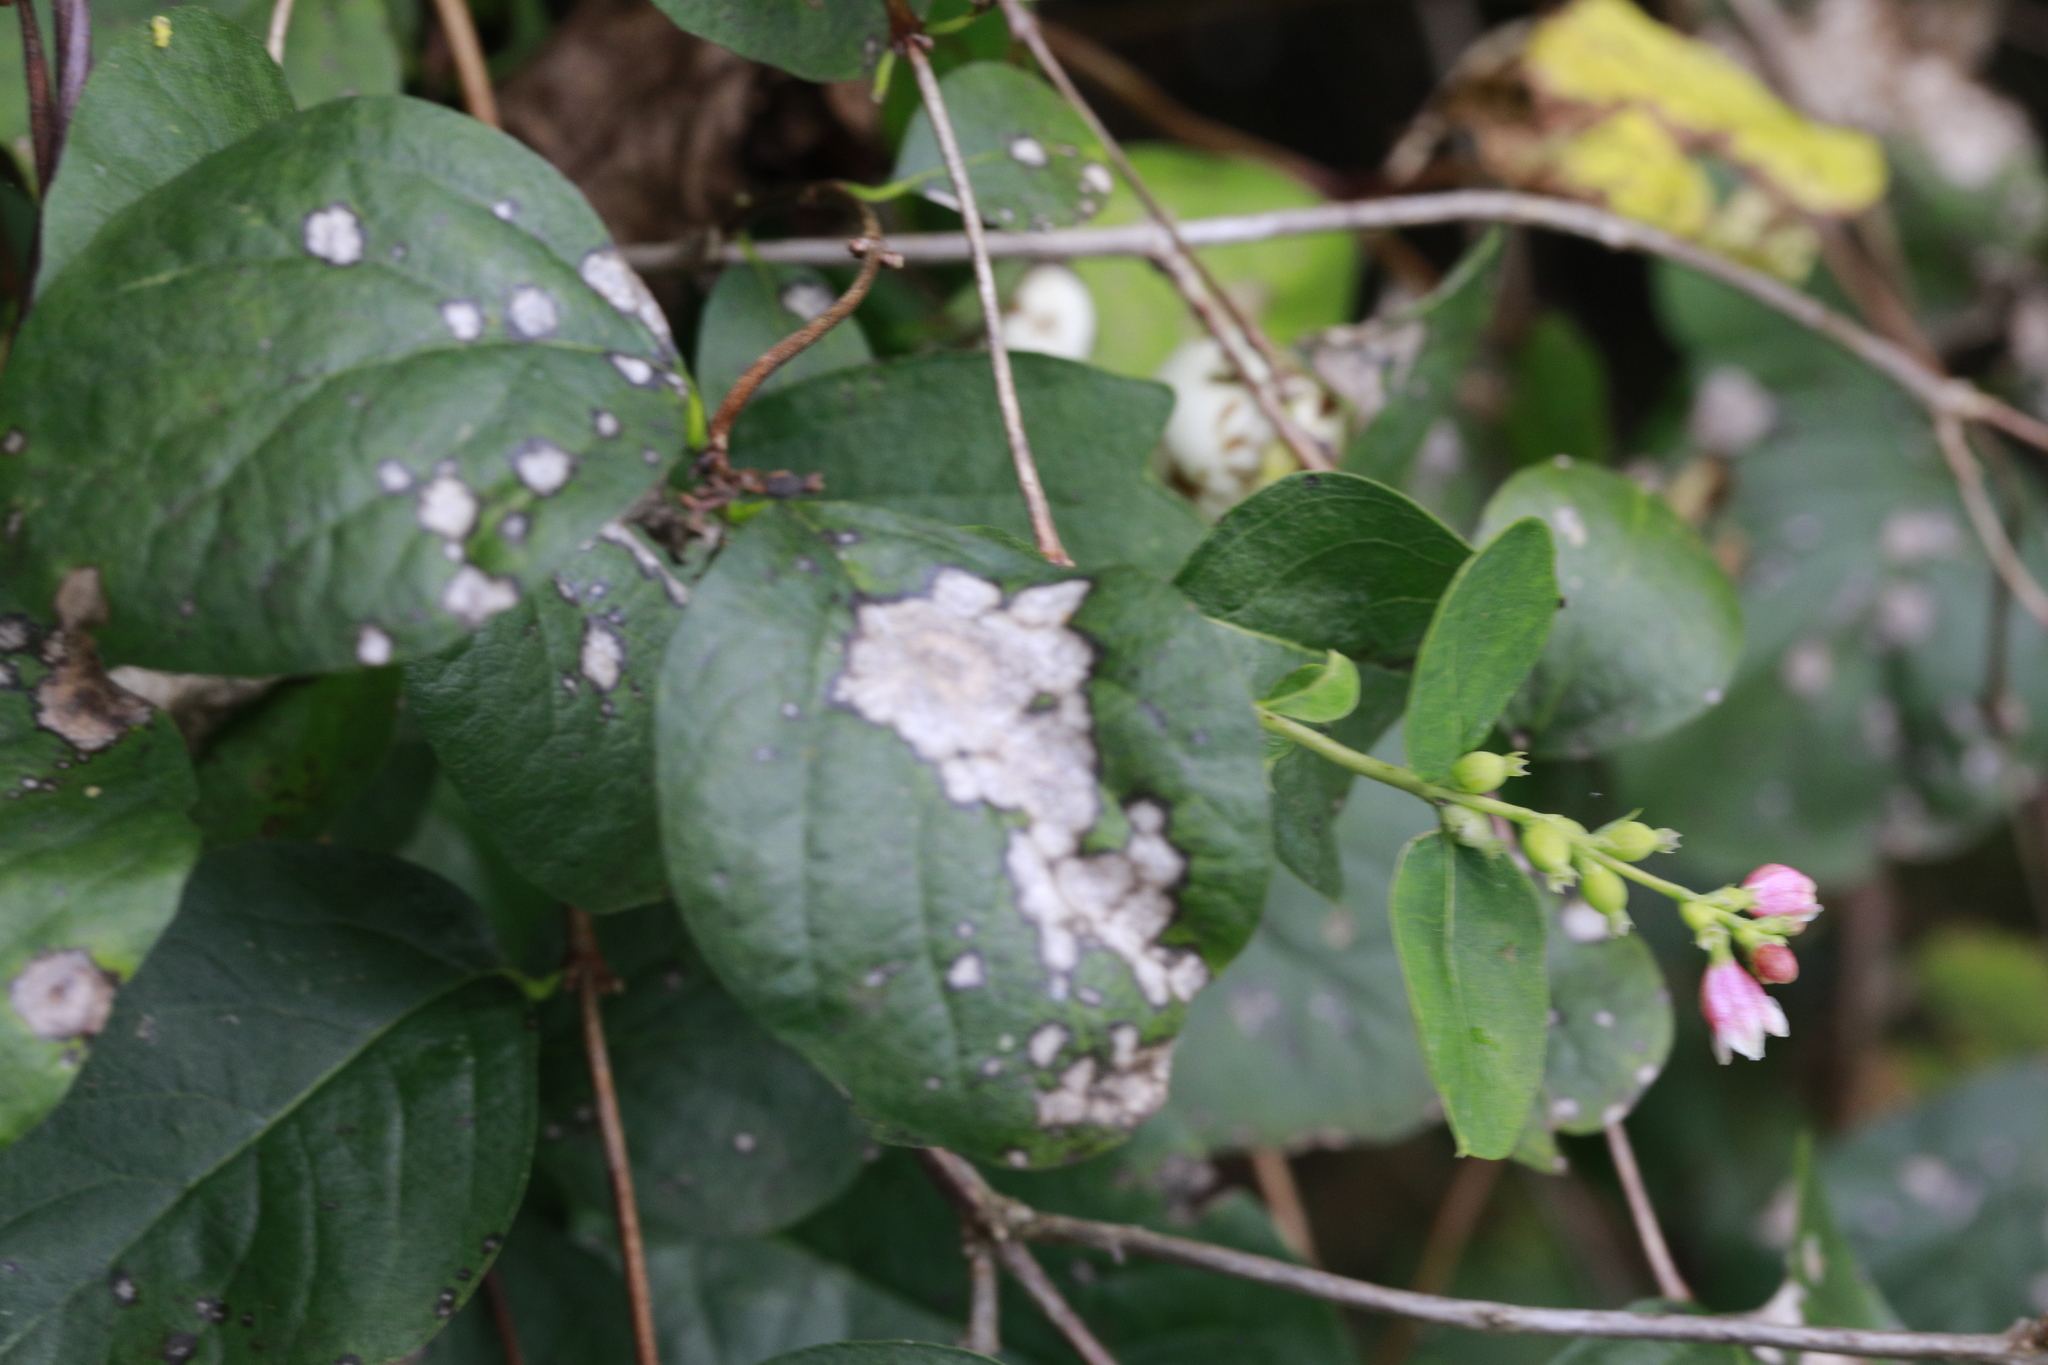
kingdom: Plantae
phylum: Tracheophyta
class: Magnoliopsida
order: Dipsacales
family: Caprifoliaceae
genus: Symphoricarpos
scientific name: Symphoricarpos albus
